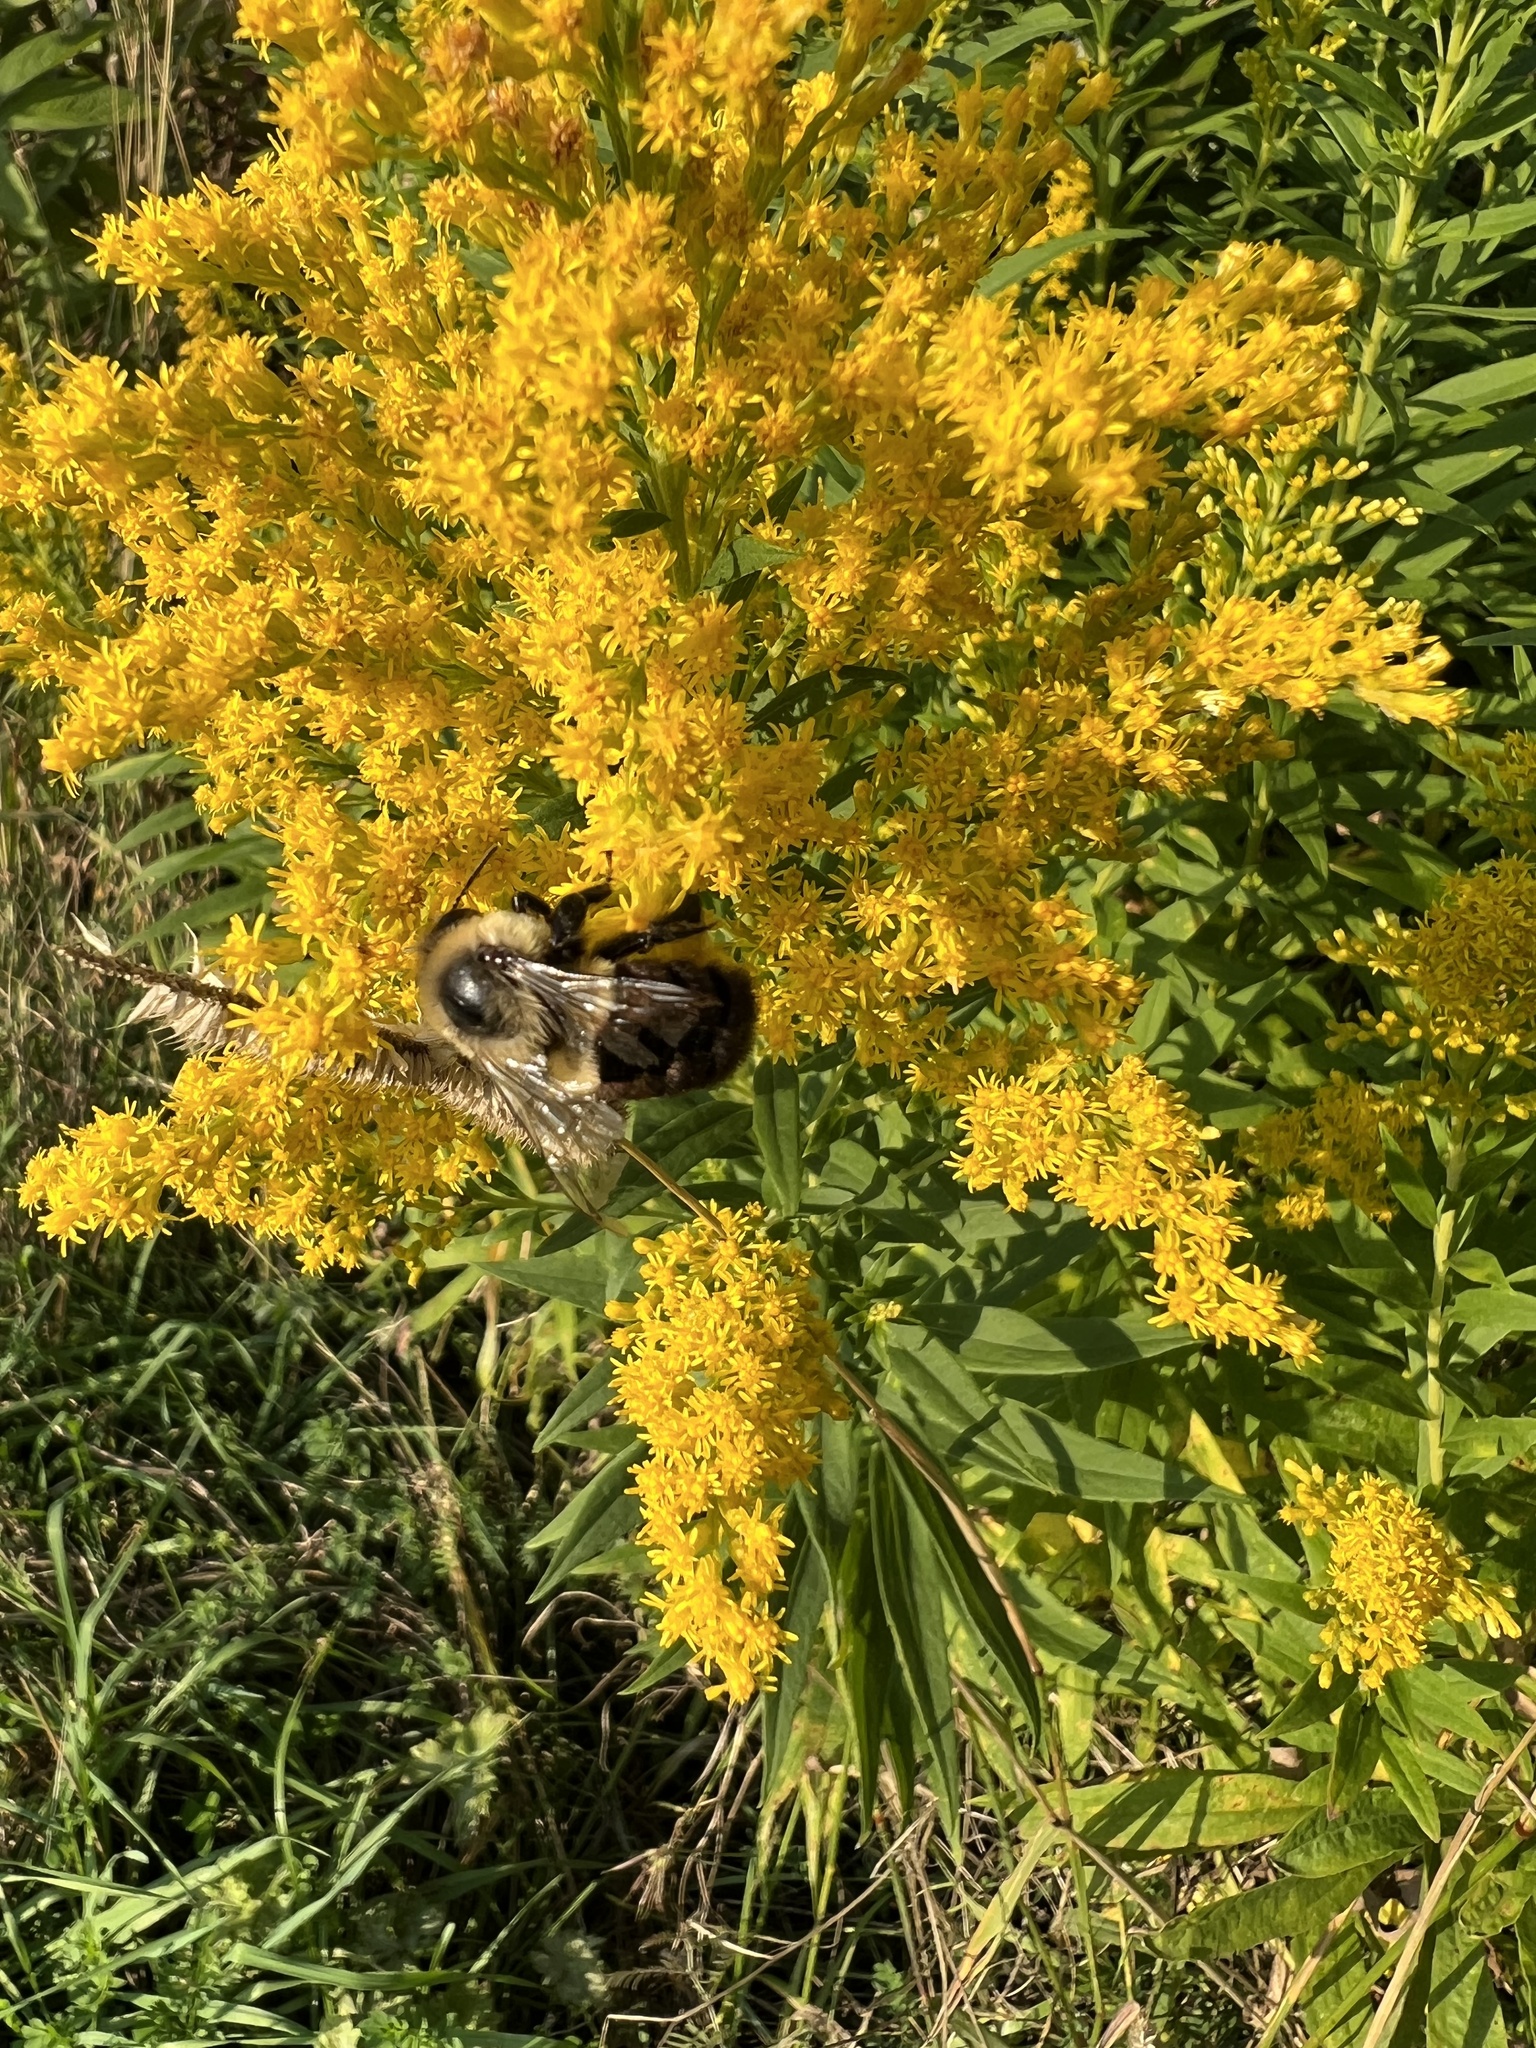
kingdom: Animalia
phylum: Arthropoda
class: Insecta
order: Hymenoptera
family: Apidae
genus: Bombus
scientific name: Bombus impatiens
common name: Common eastern bumble bee
